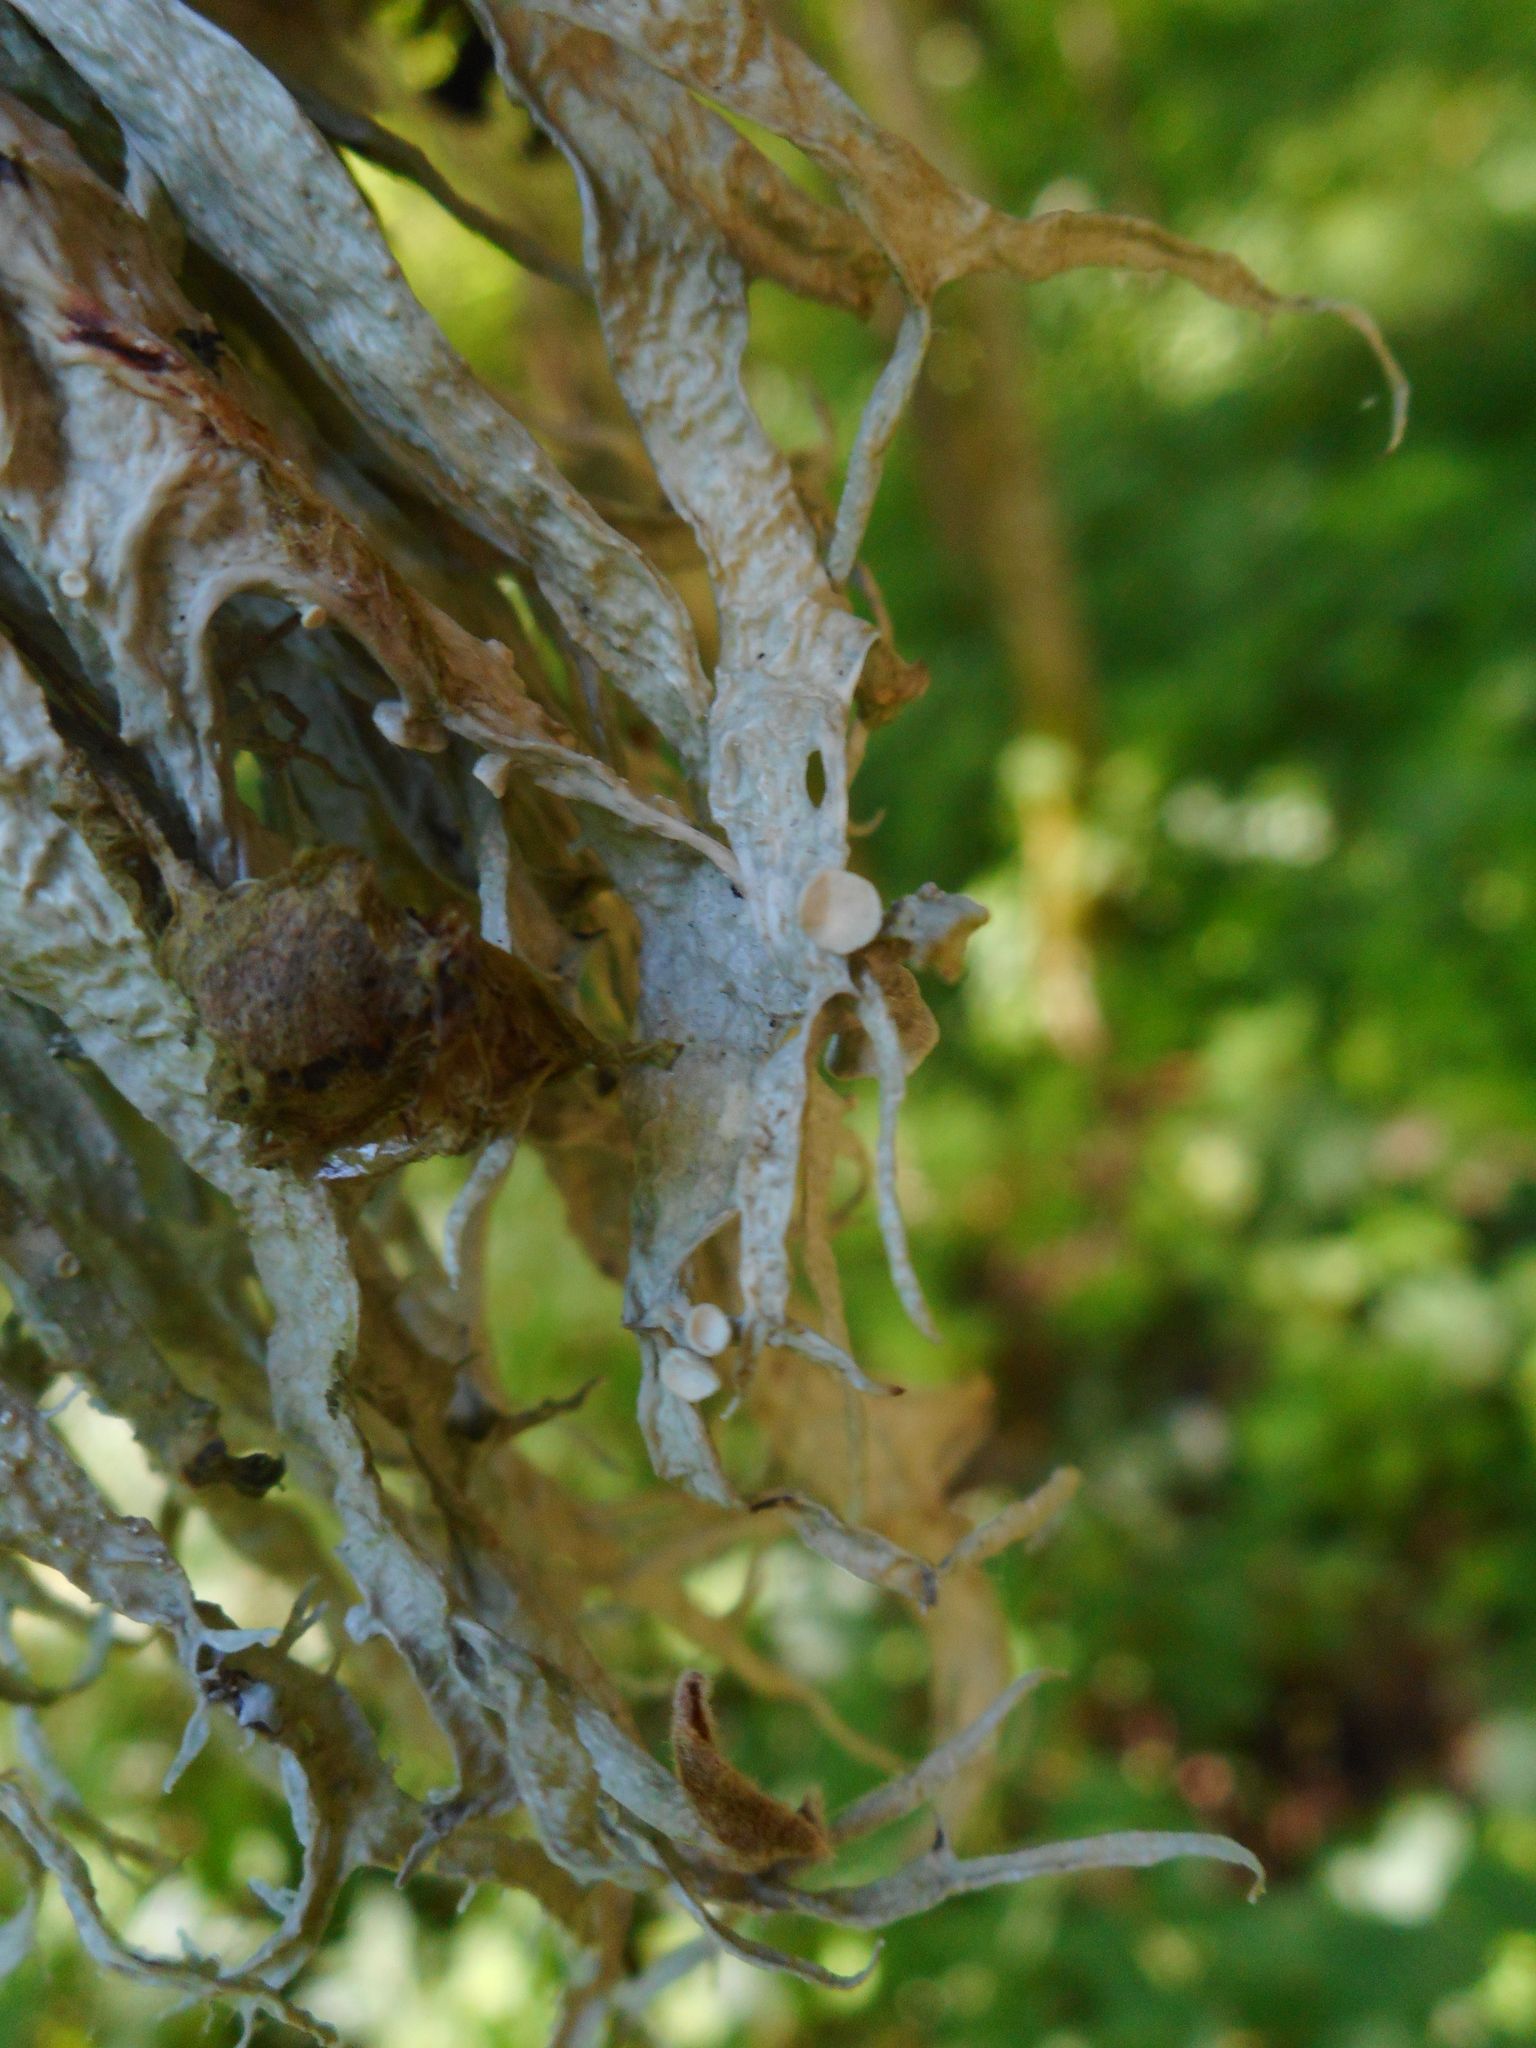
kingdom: Fungi
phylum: Ascomycota
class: Lecanoromycetes
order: Lecanorales
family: Ramalinaceae
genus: Ramalina
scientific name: Ramalina fraxinea
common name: Cartilage lichen
